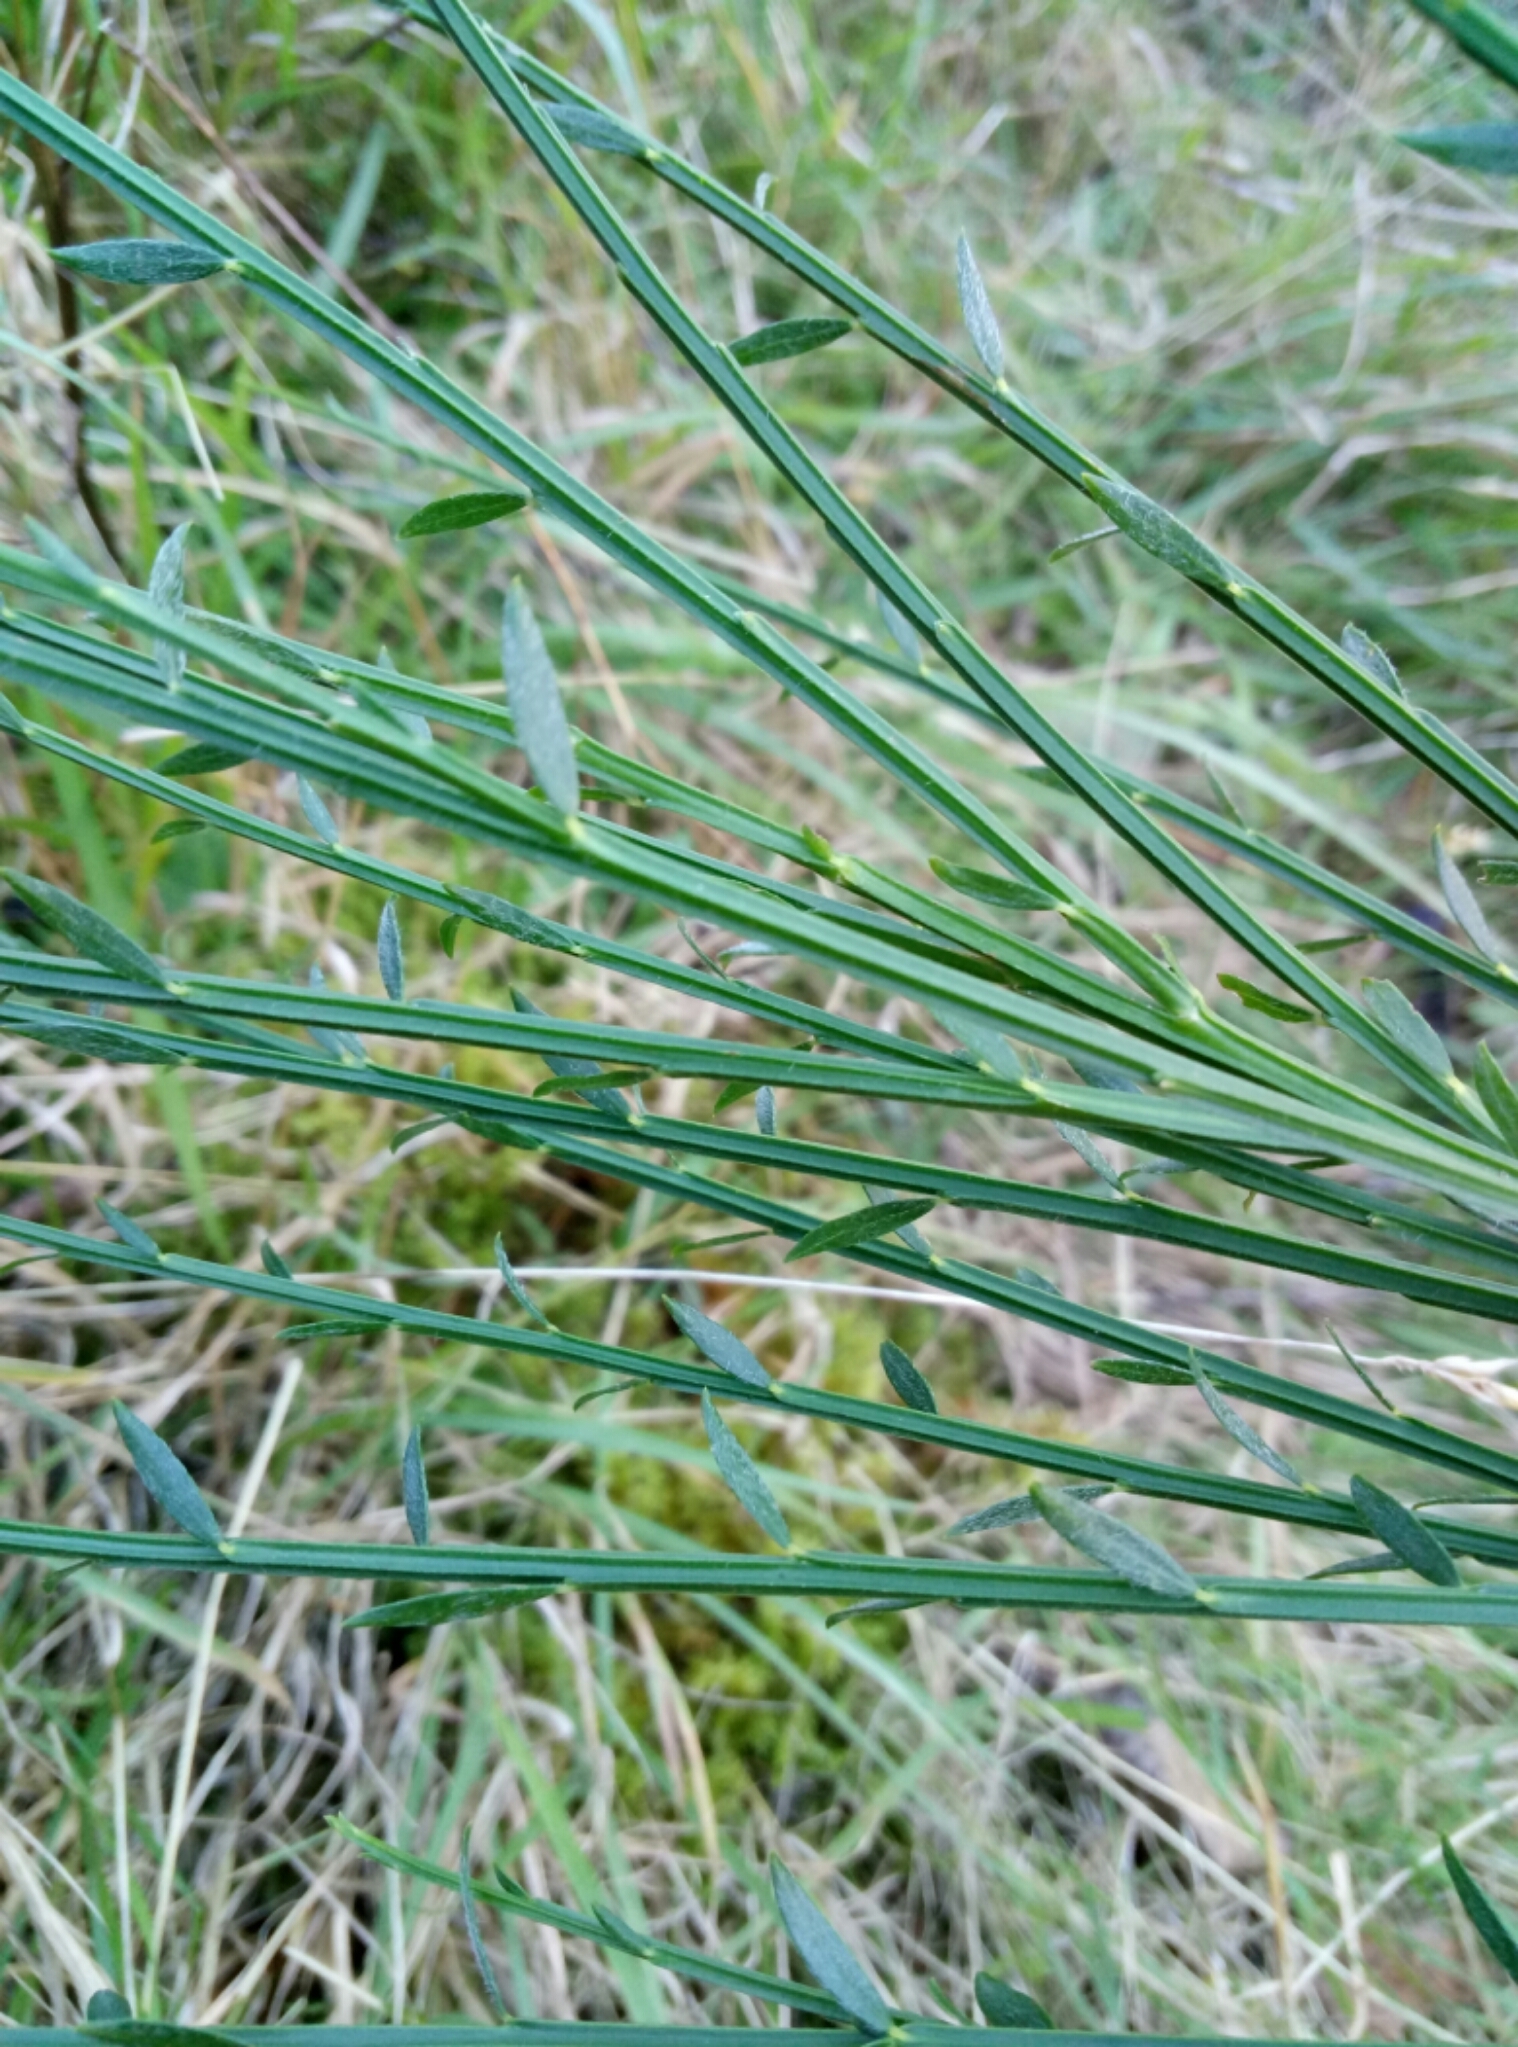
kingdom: Plantae
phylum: Tracheophyta
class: Magnoliopsida
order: Fabales
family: Fabaceae
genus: Cytisus
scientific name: Cytisus scoparius
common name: Scotch broom
